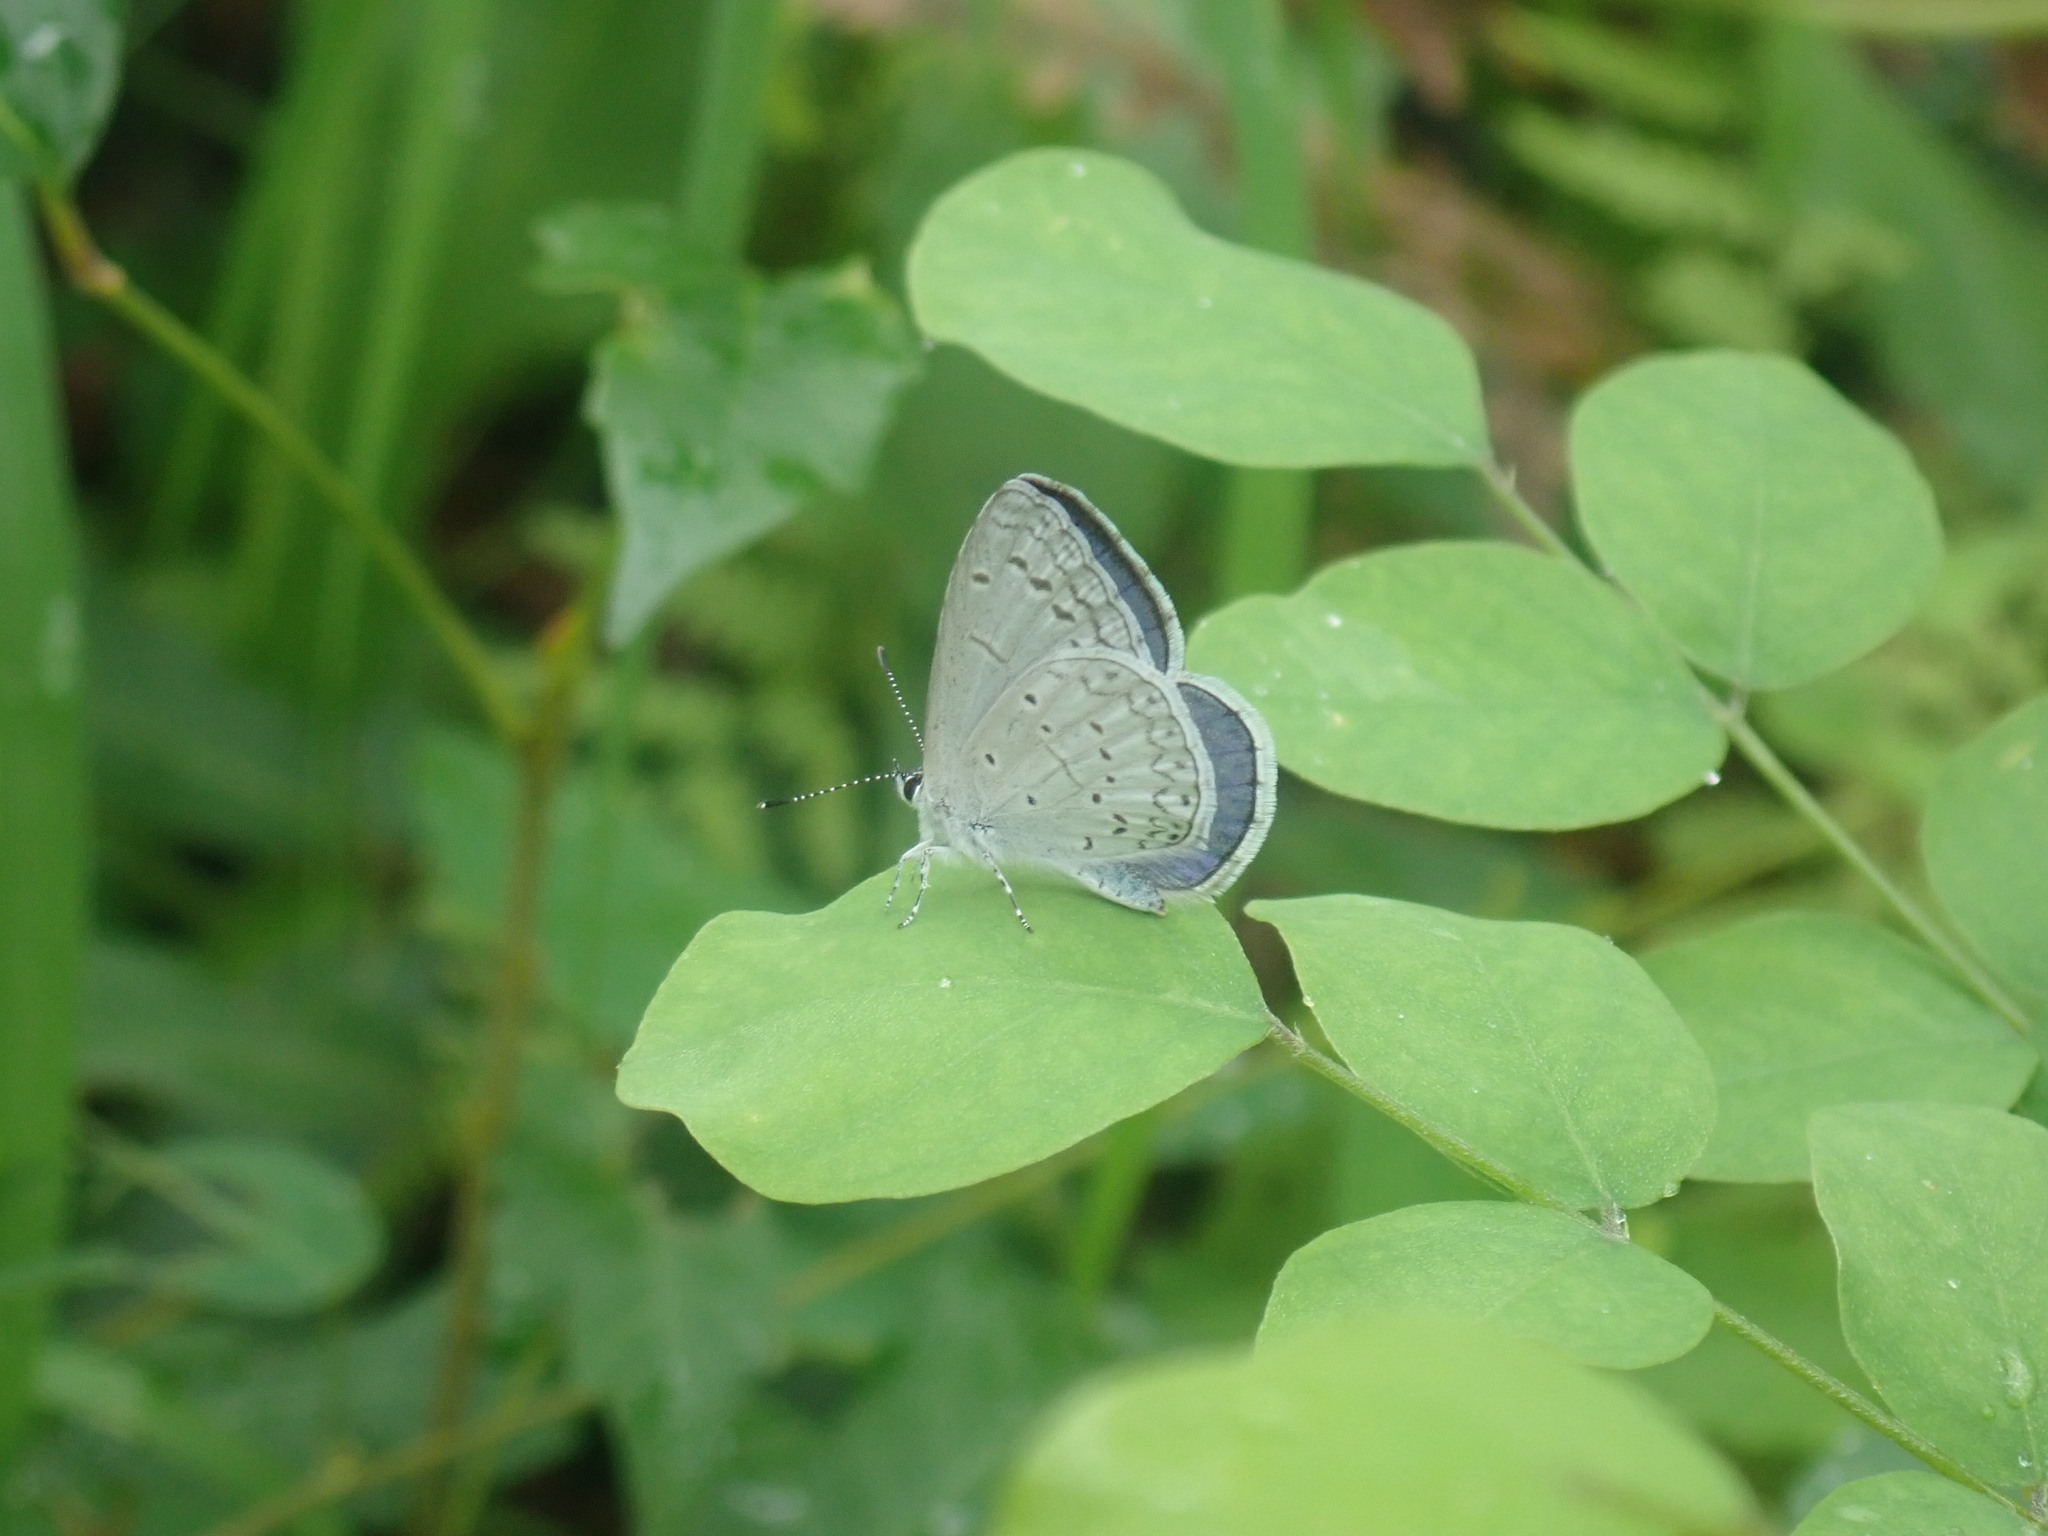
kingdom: Animalia
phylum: Arthropoda
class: Insecta
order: Lepidoptera
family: Lycaenidae
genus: Celastrina
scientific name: Celastrina ladon
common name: Spring azure
